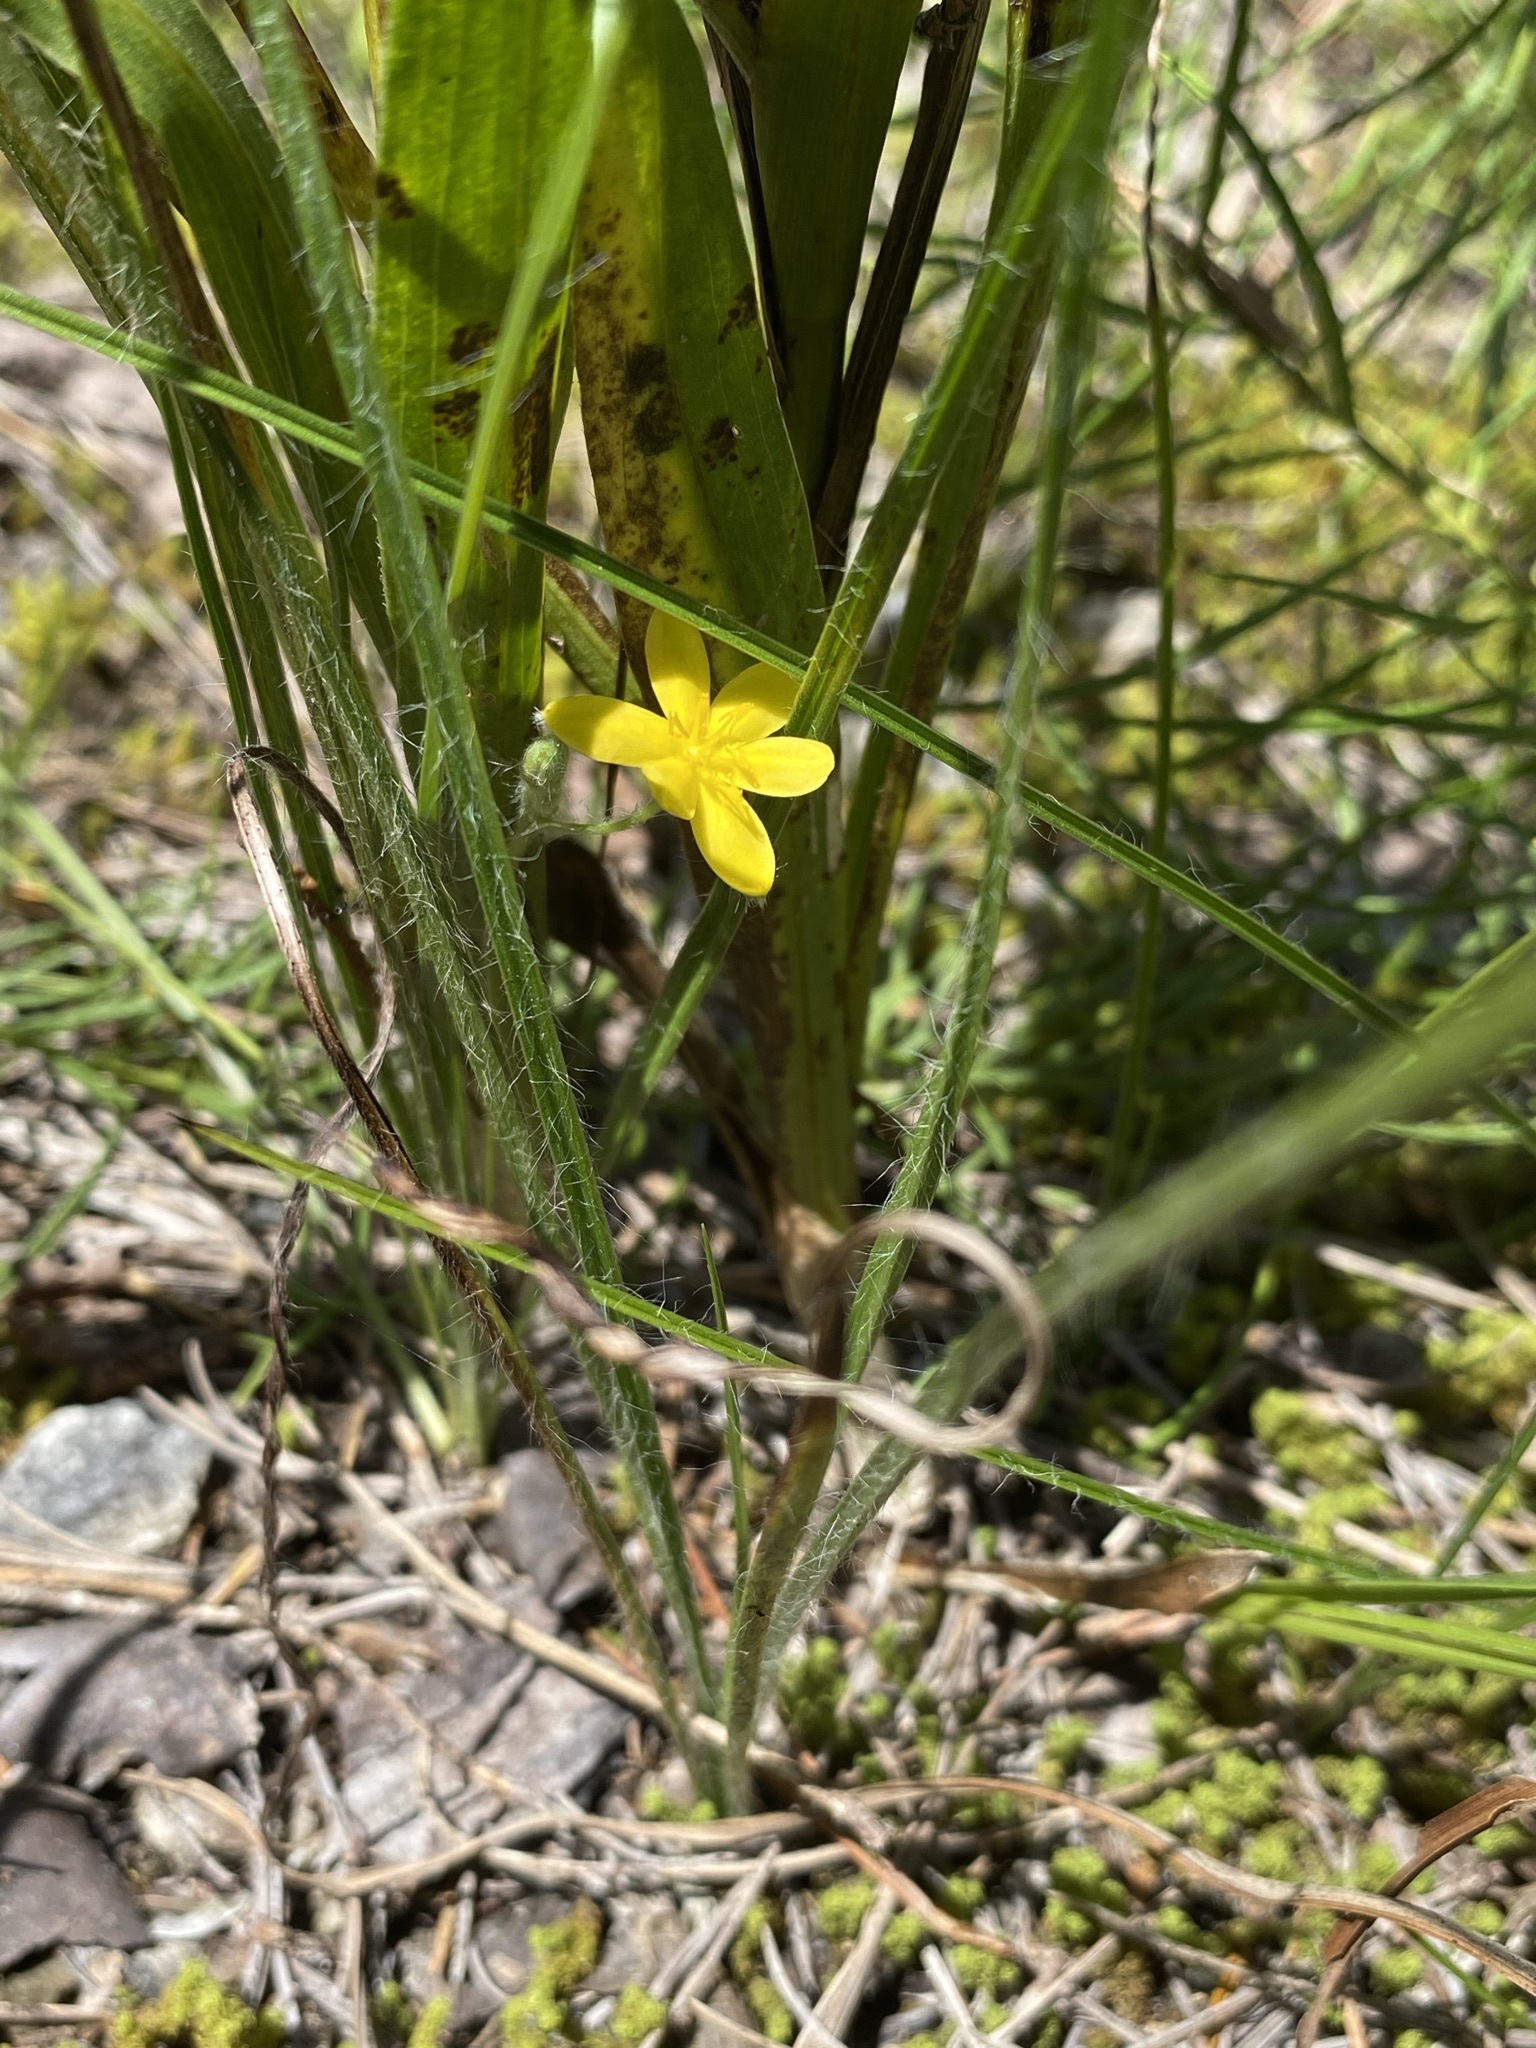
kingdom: Plantae
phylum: Tracheophyta
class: Liliopsida
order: Asparagales
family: Hypoxidaceae
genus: Hypoxis
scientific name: Hypoxis hirsuta
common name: Common goldstar
